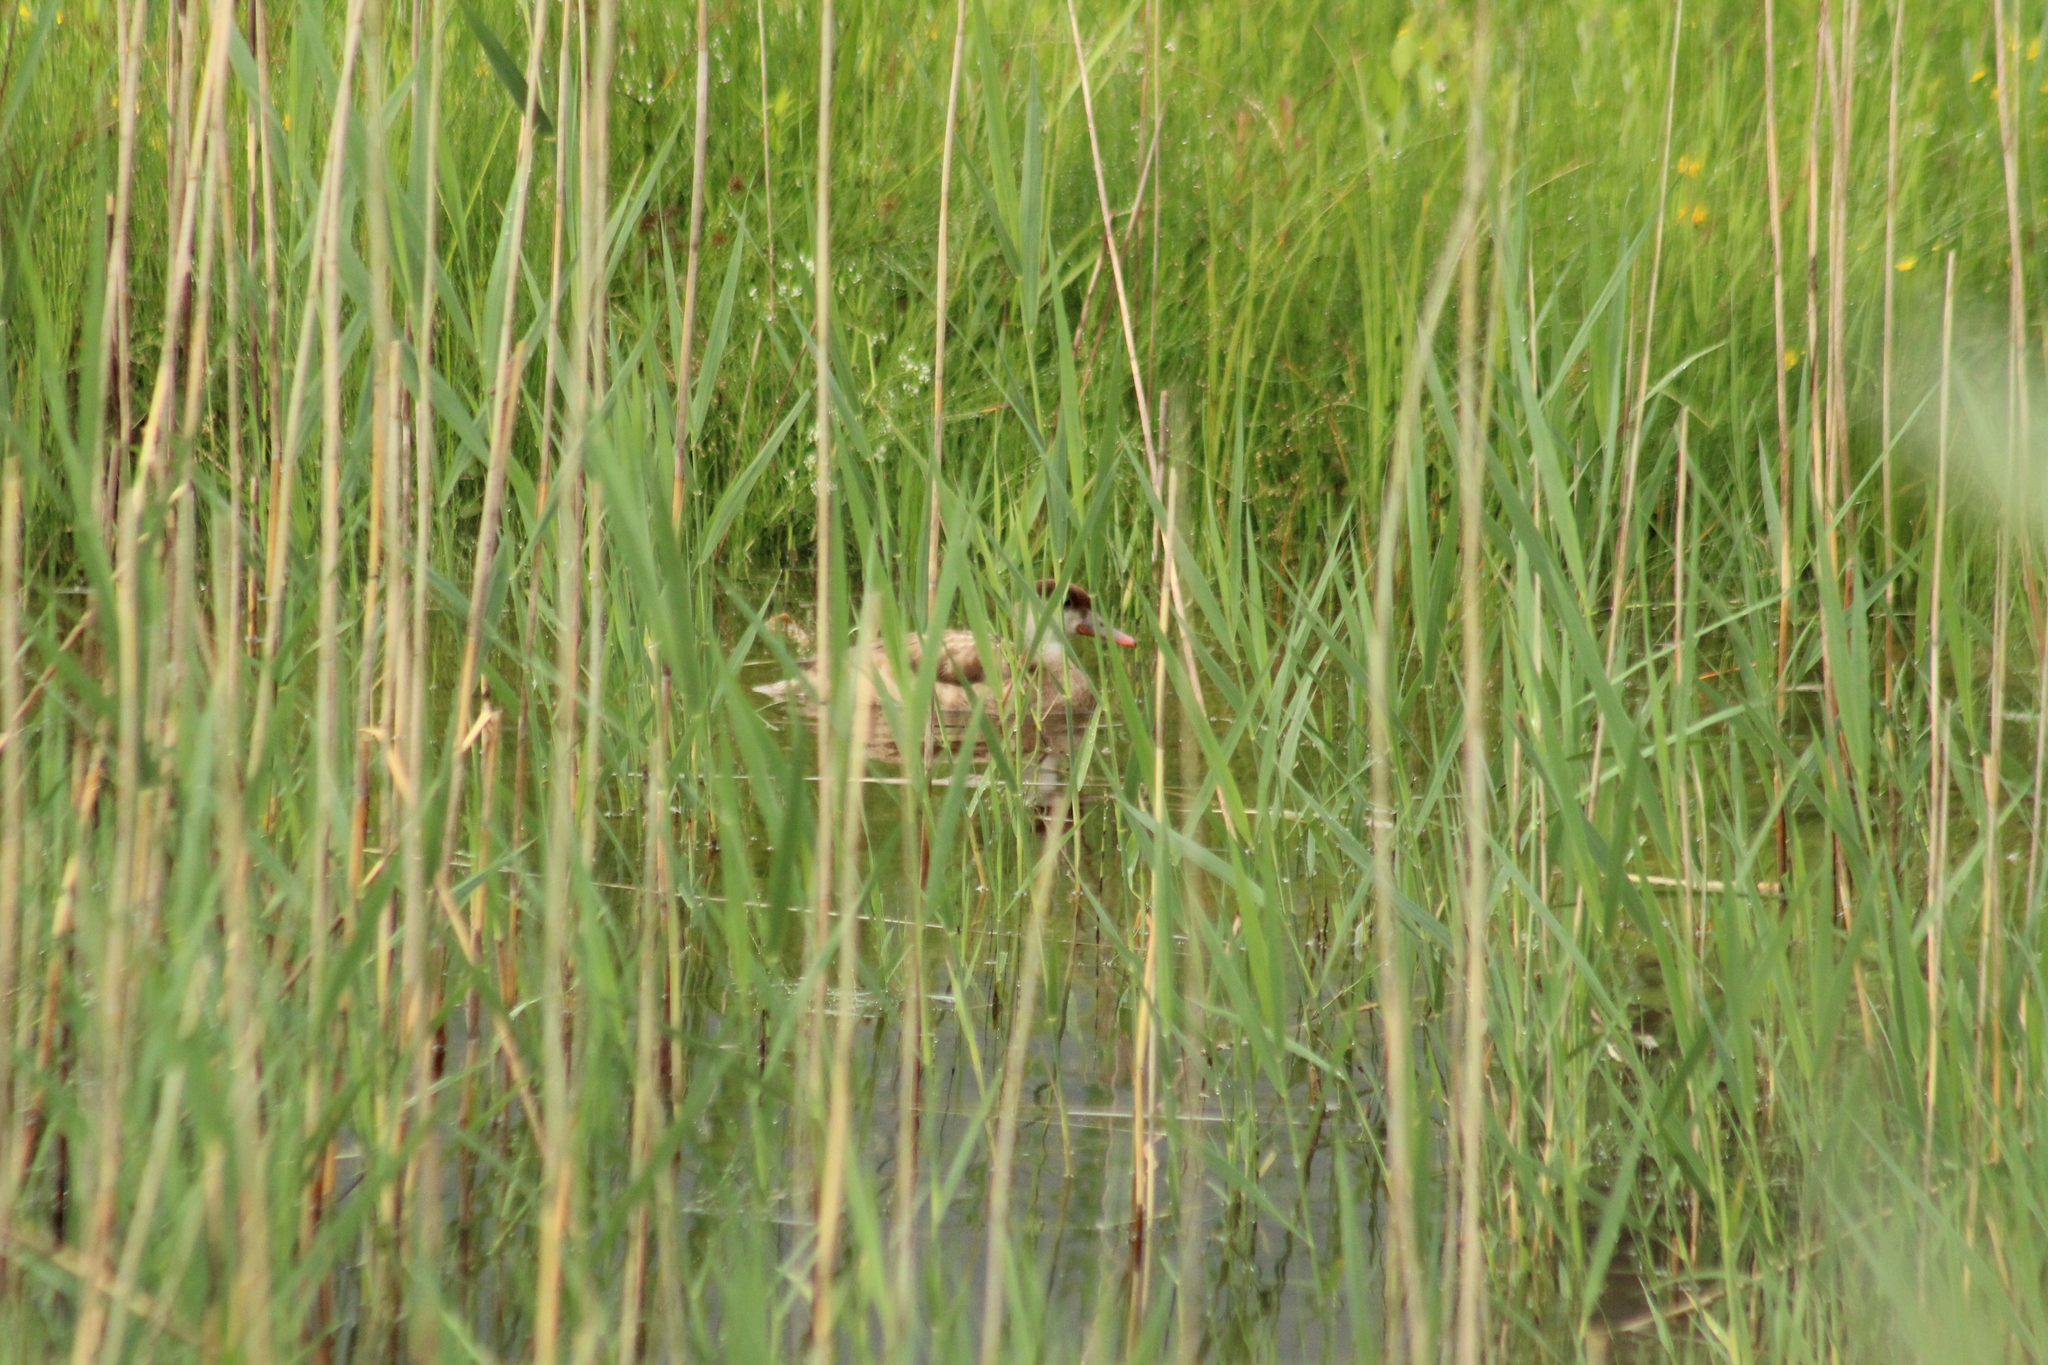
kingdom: Animalia
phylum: Chordata
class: Aves
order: Anseriformes
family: Anatidae
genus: Netta
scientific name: Netta rufina
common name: Red-crested pochard
